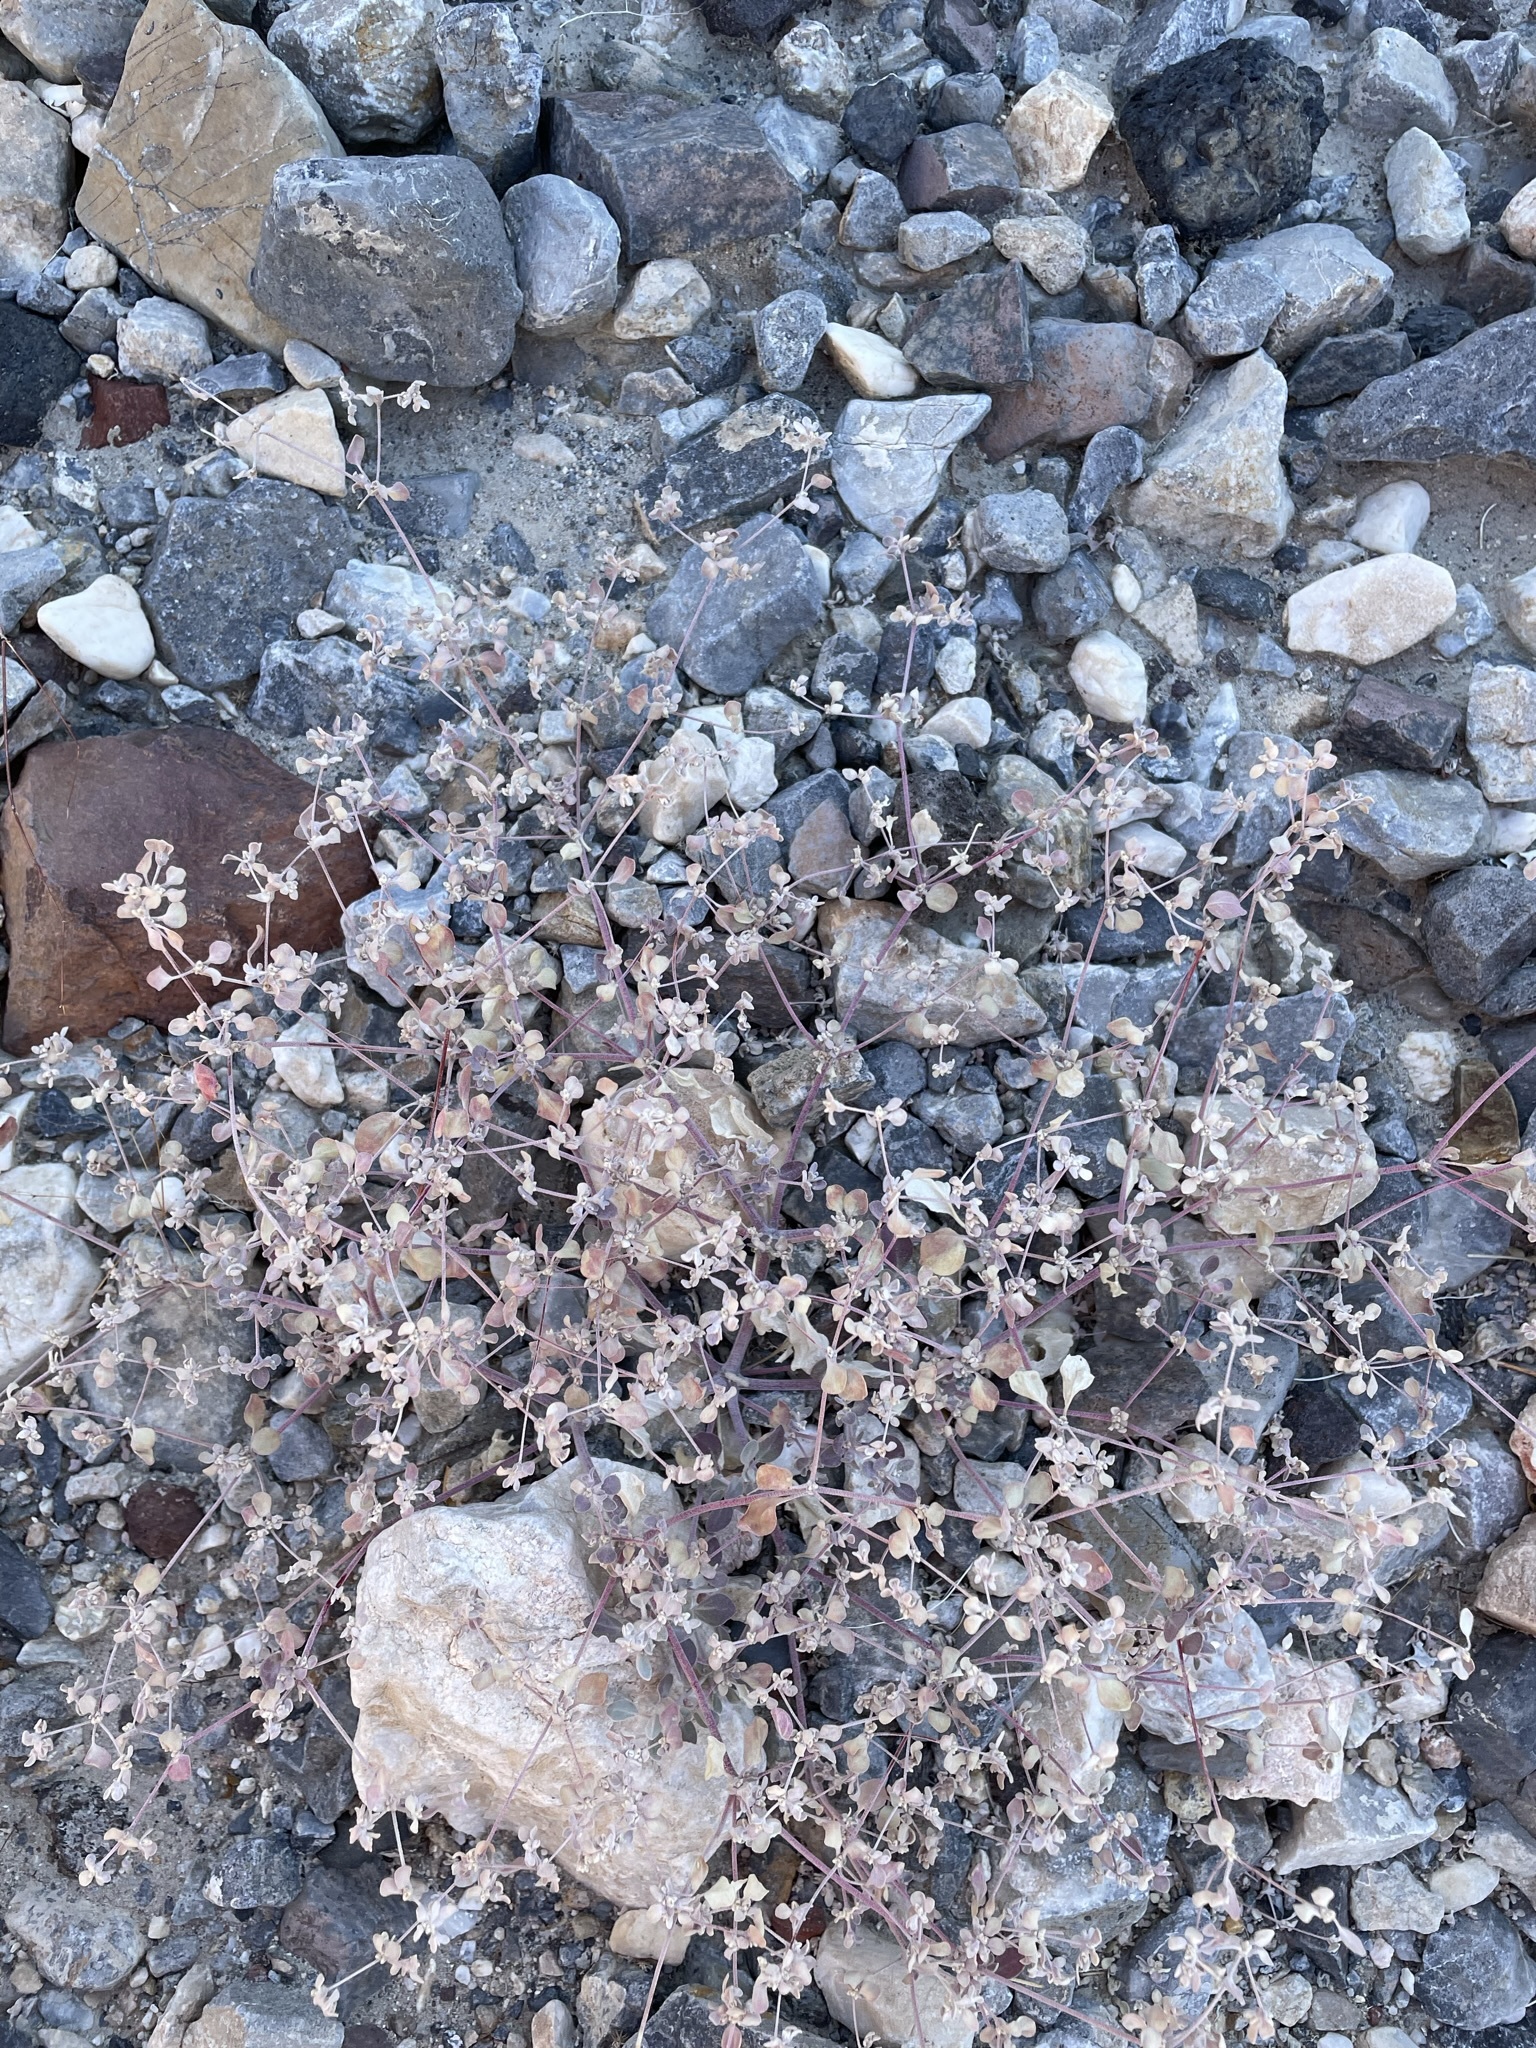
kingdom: Plantae
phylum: Tracheophyta
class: Magnoliopsida
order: Caryophyllales
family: Amaranthaceae
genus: Tidestromia
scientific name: Tidestromia suffruticosa
